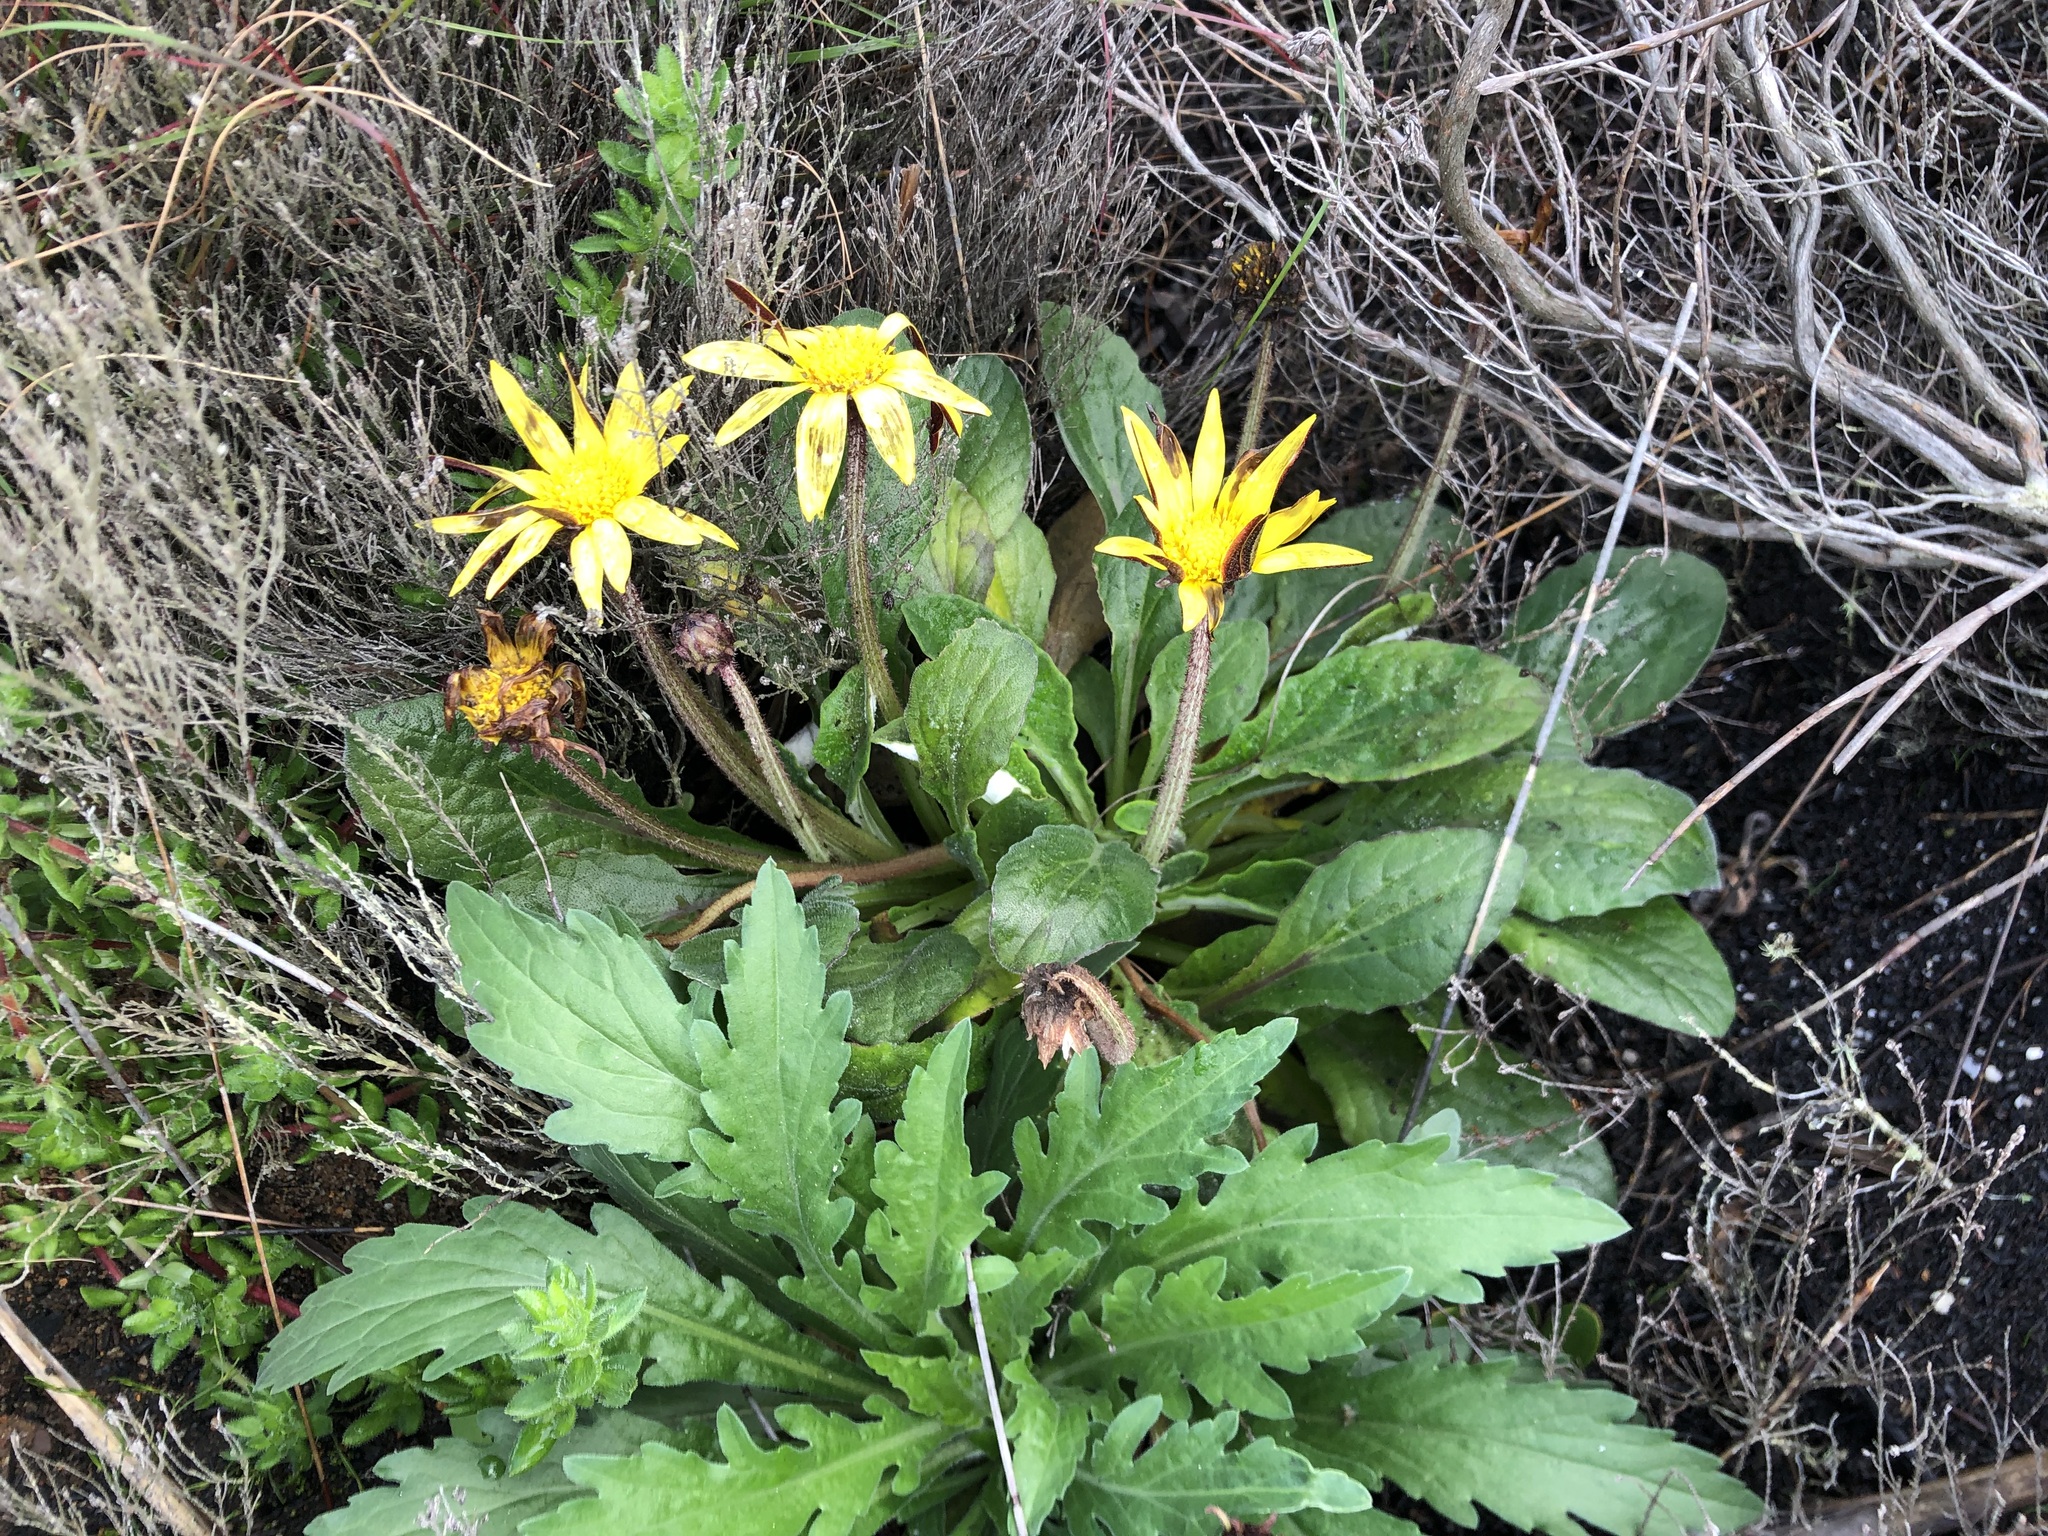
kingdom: Plantae
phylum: Tracheophyta
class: Magnoliopsida
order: Asterales
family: Asteraceae
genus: Haplocarpha
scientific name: Haplocarpha lanata
